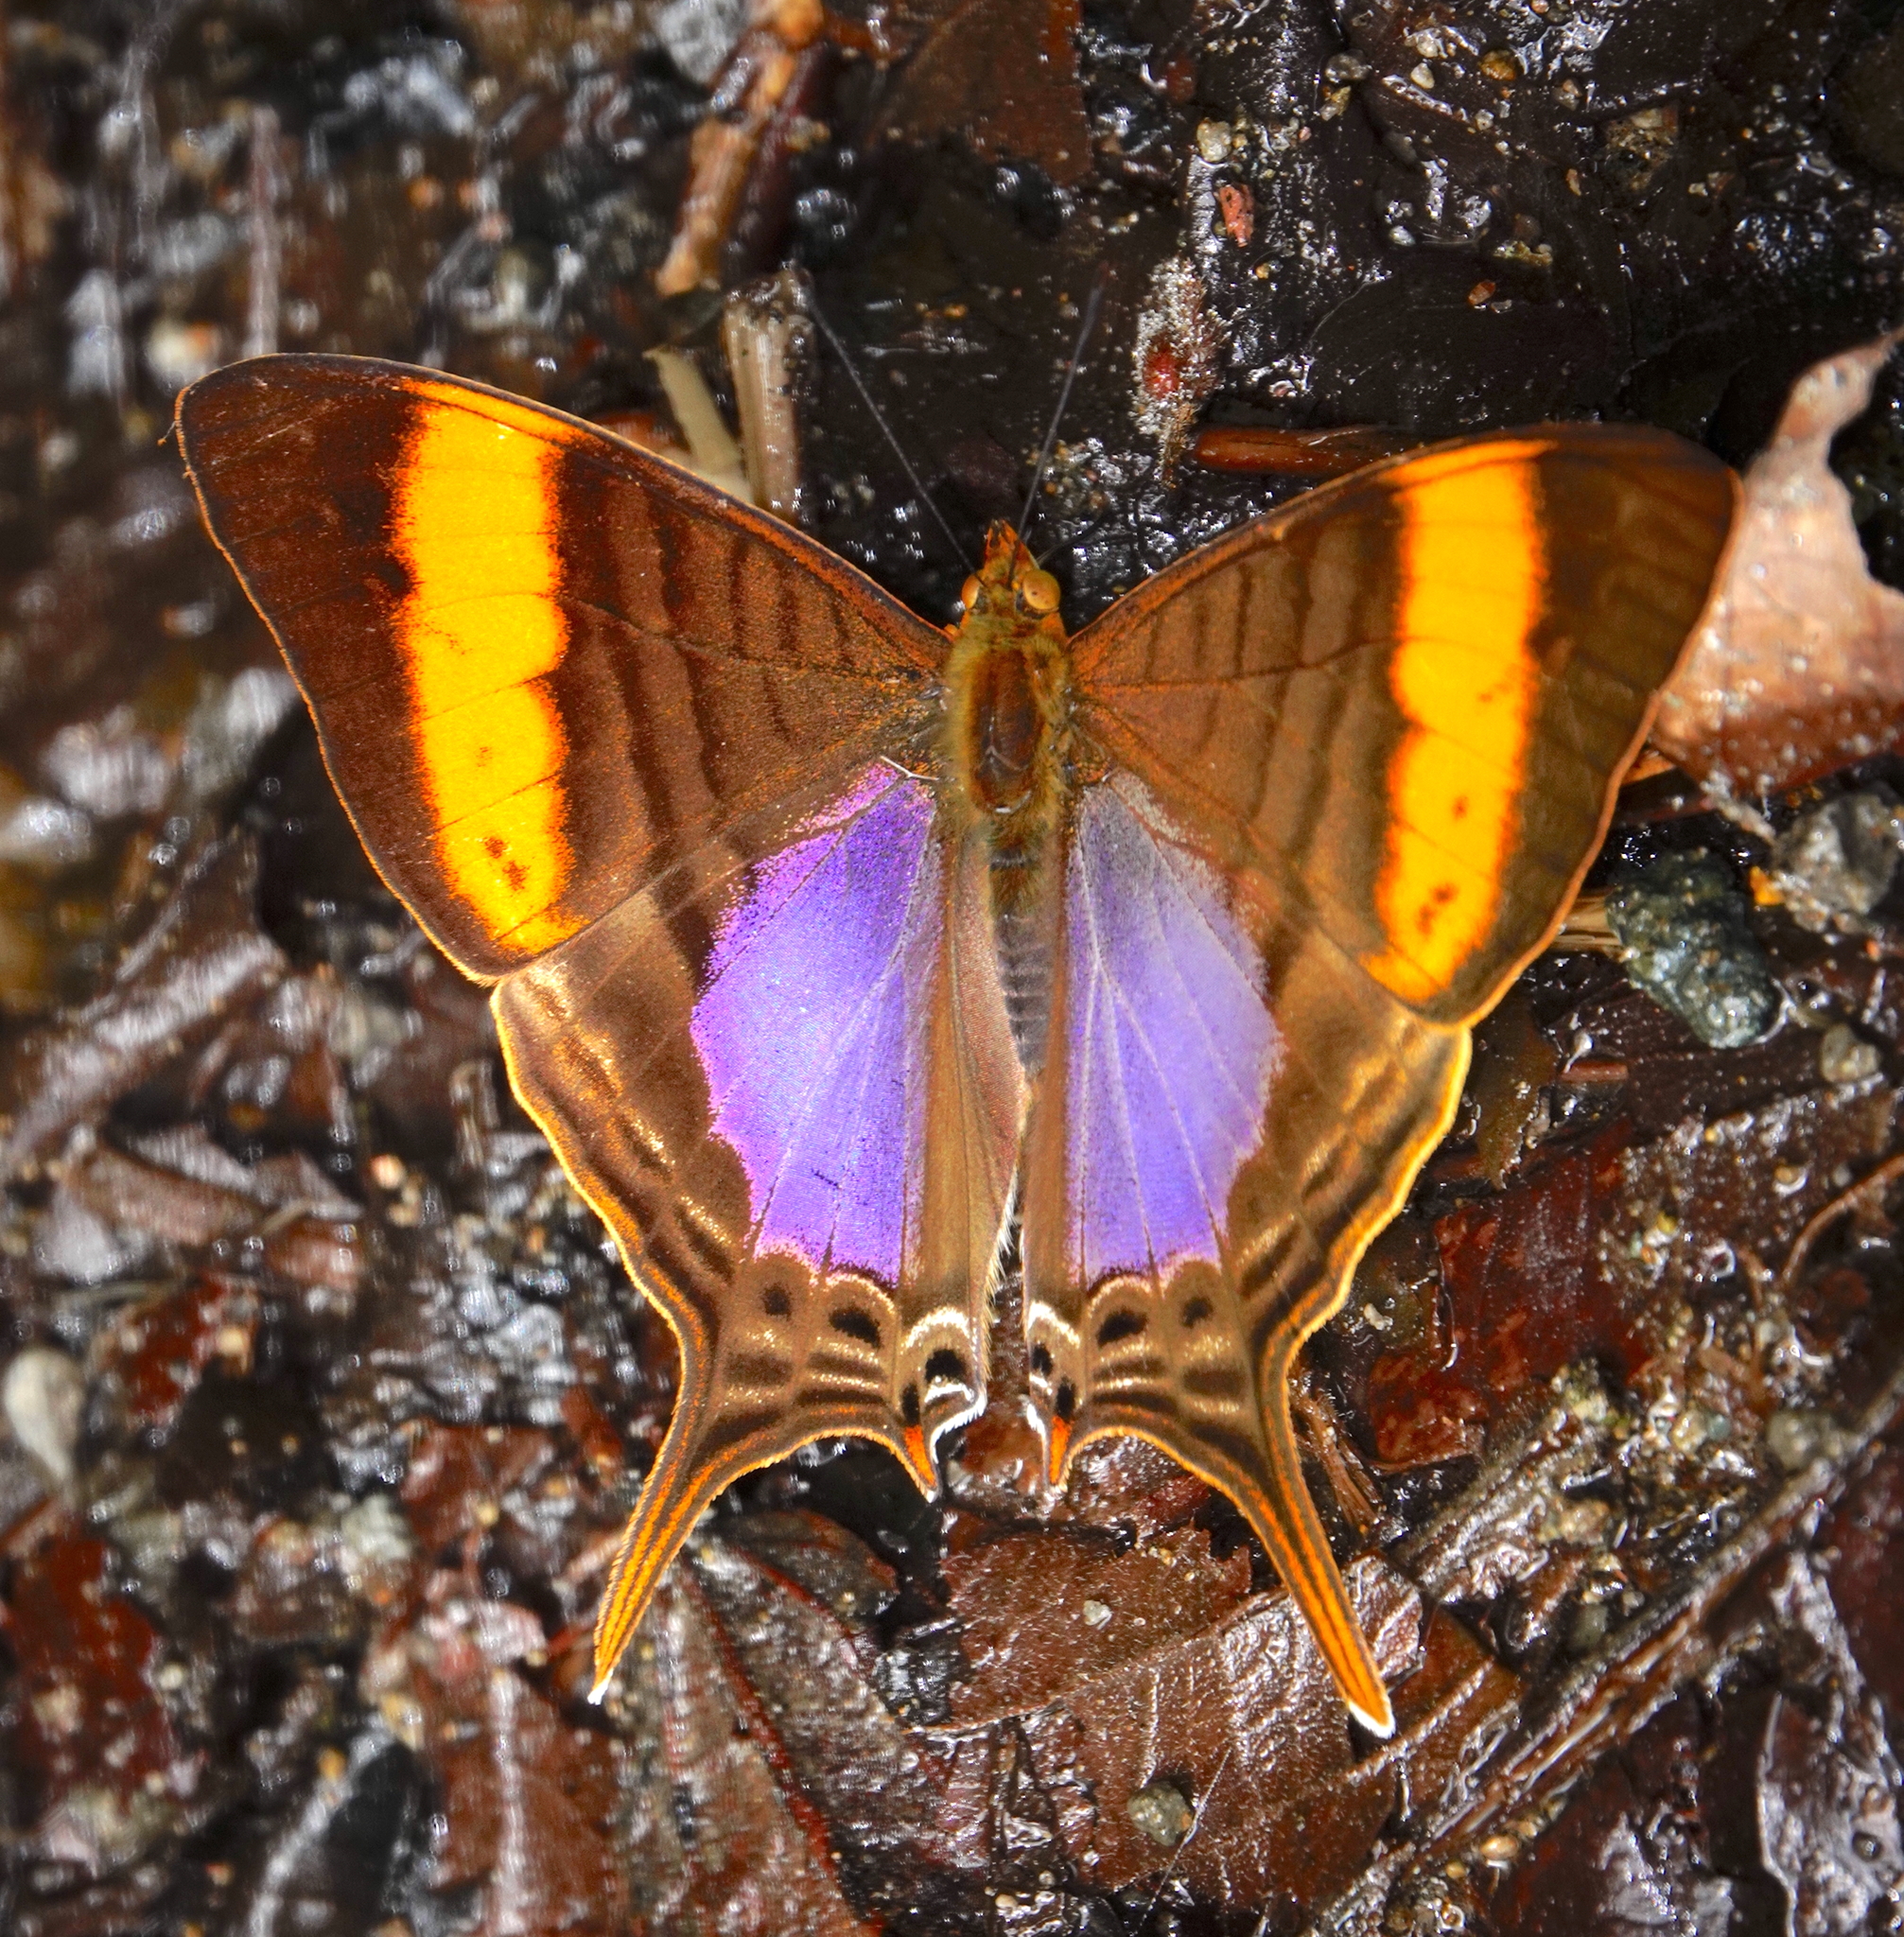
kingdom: Animalia
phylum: Arthropoda
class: Insecta
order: Lepidoptera
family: Nymphalidae
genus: Marpesia
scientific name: Marpesia corinna
